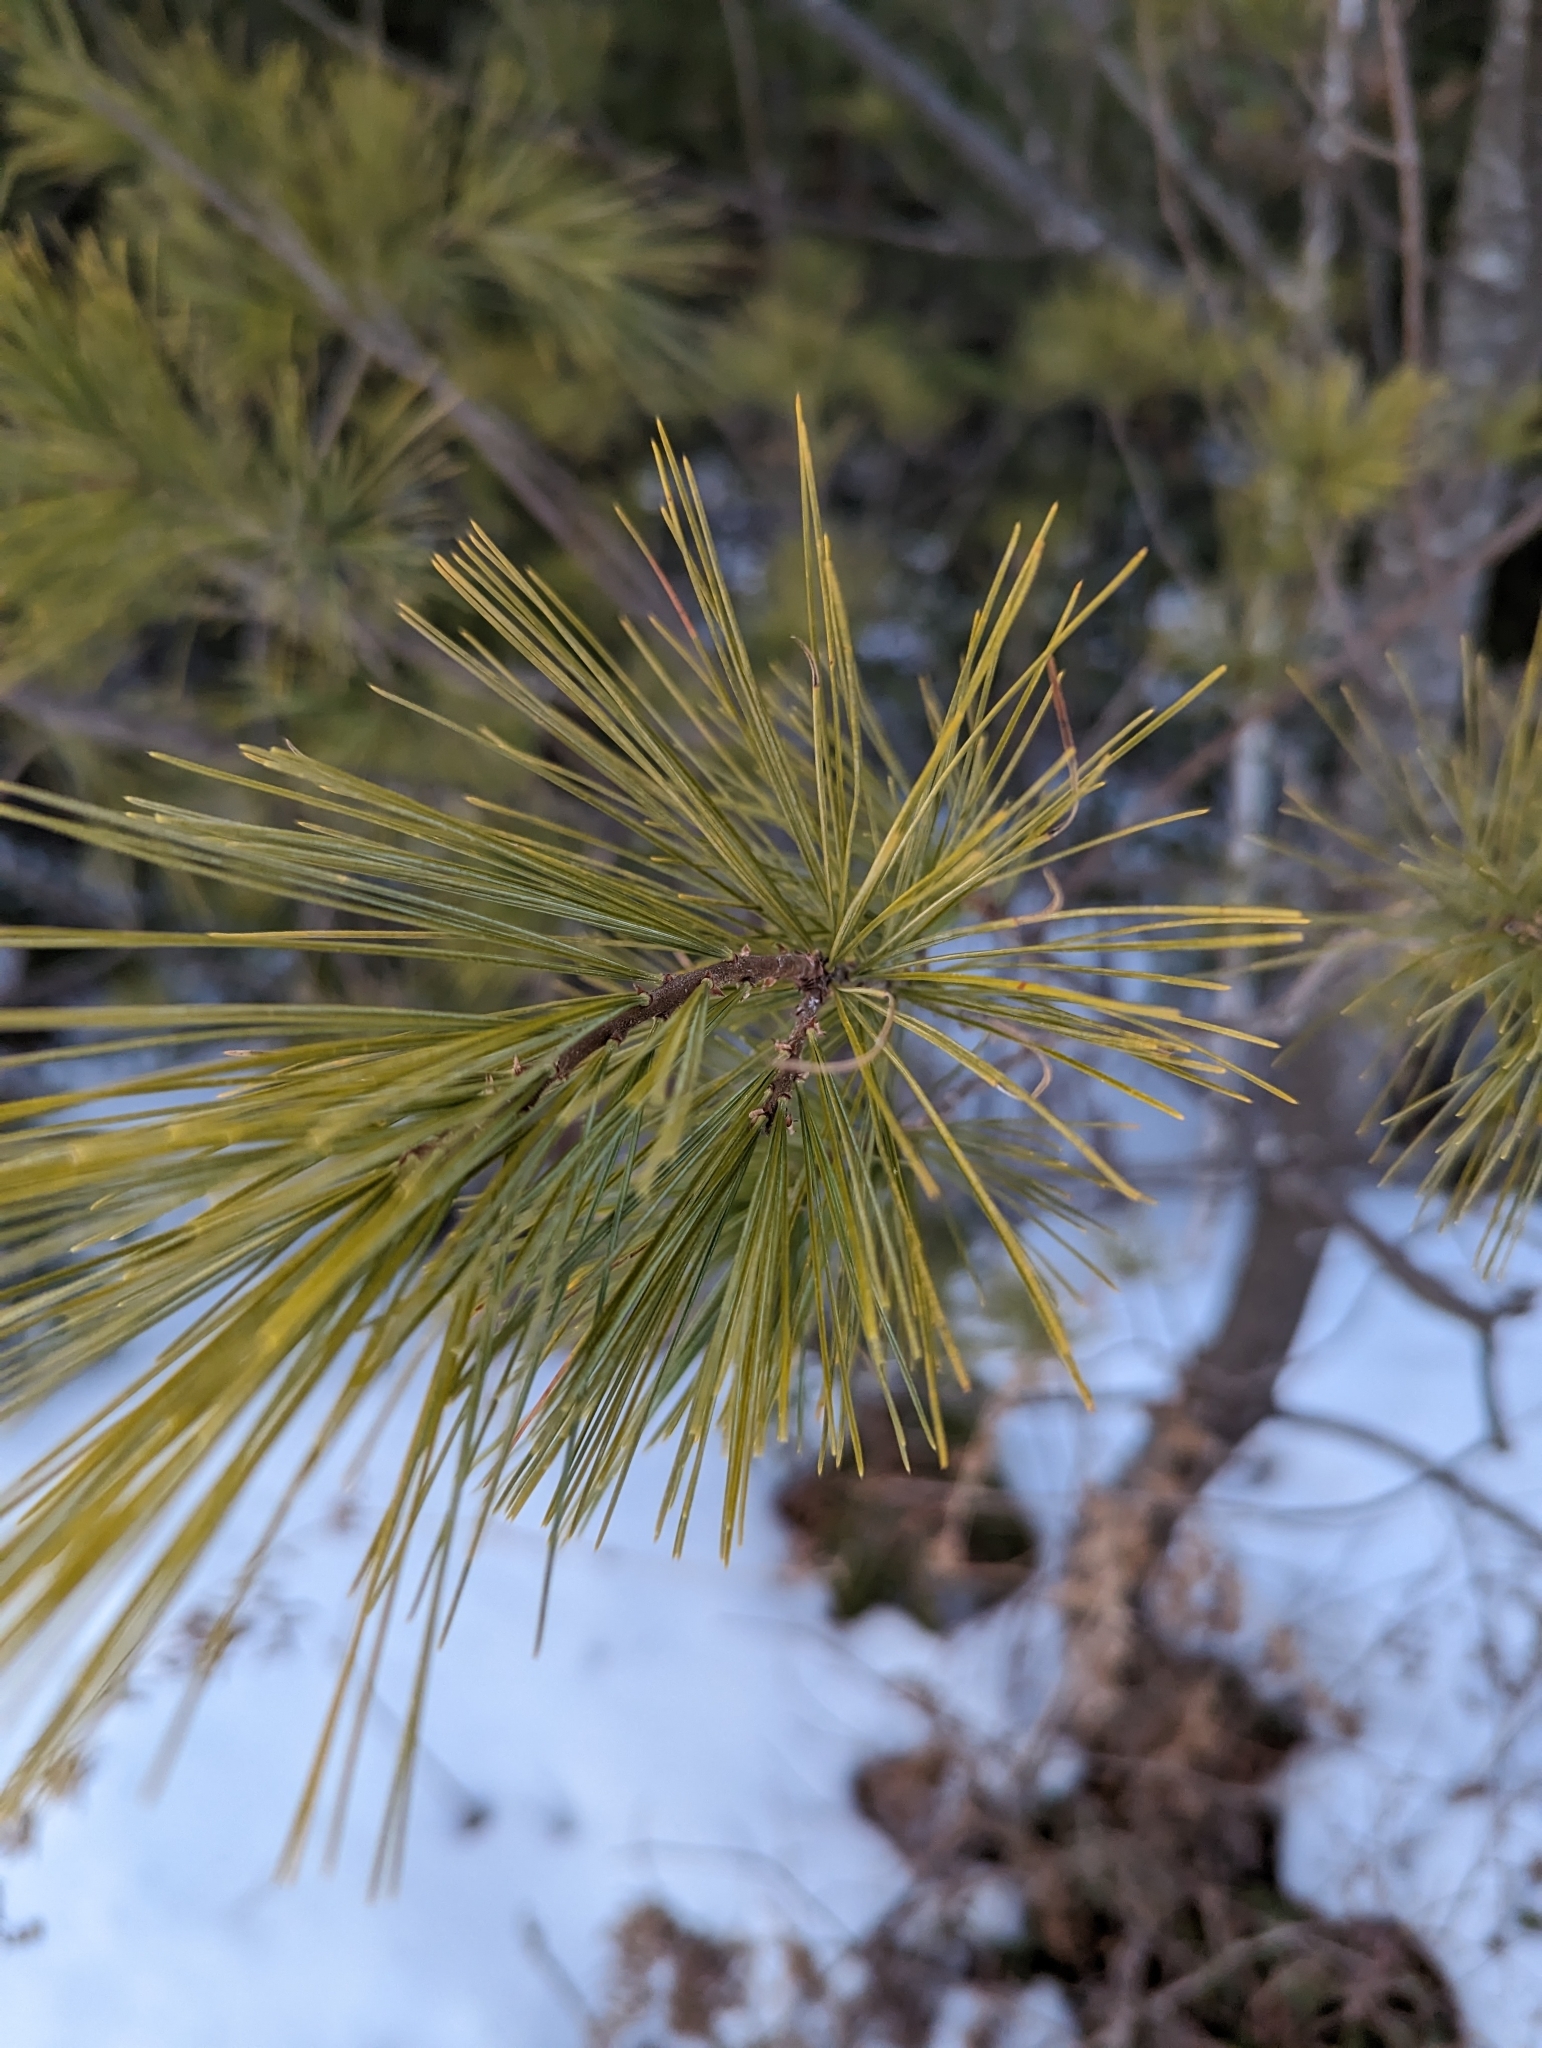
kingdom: Plantae
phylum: Tracheophyta
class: Pinopsida
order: Pinales
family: Pinaceae
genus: Pinus
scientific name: Pinus strobus
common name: Weymouth pine
